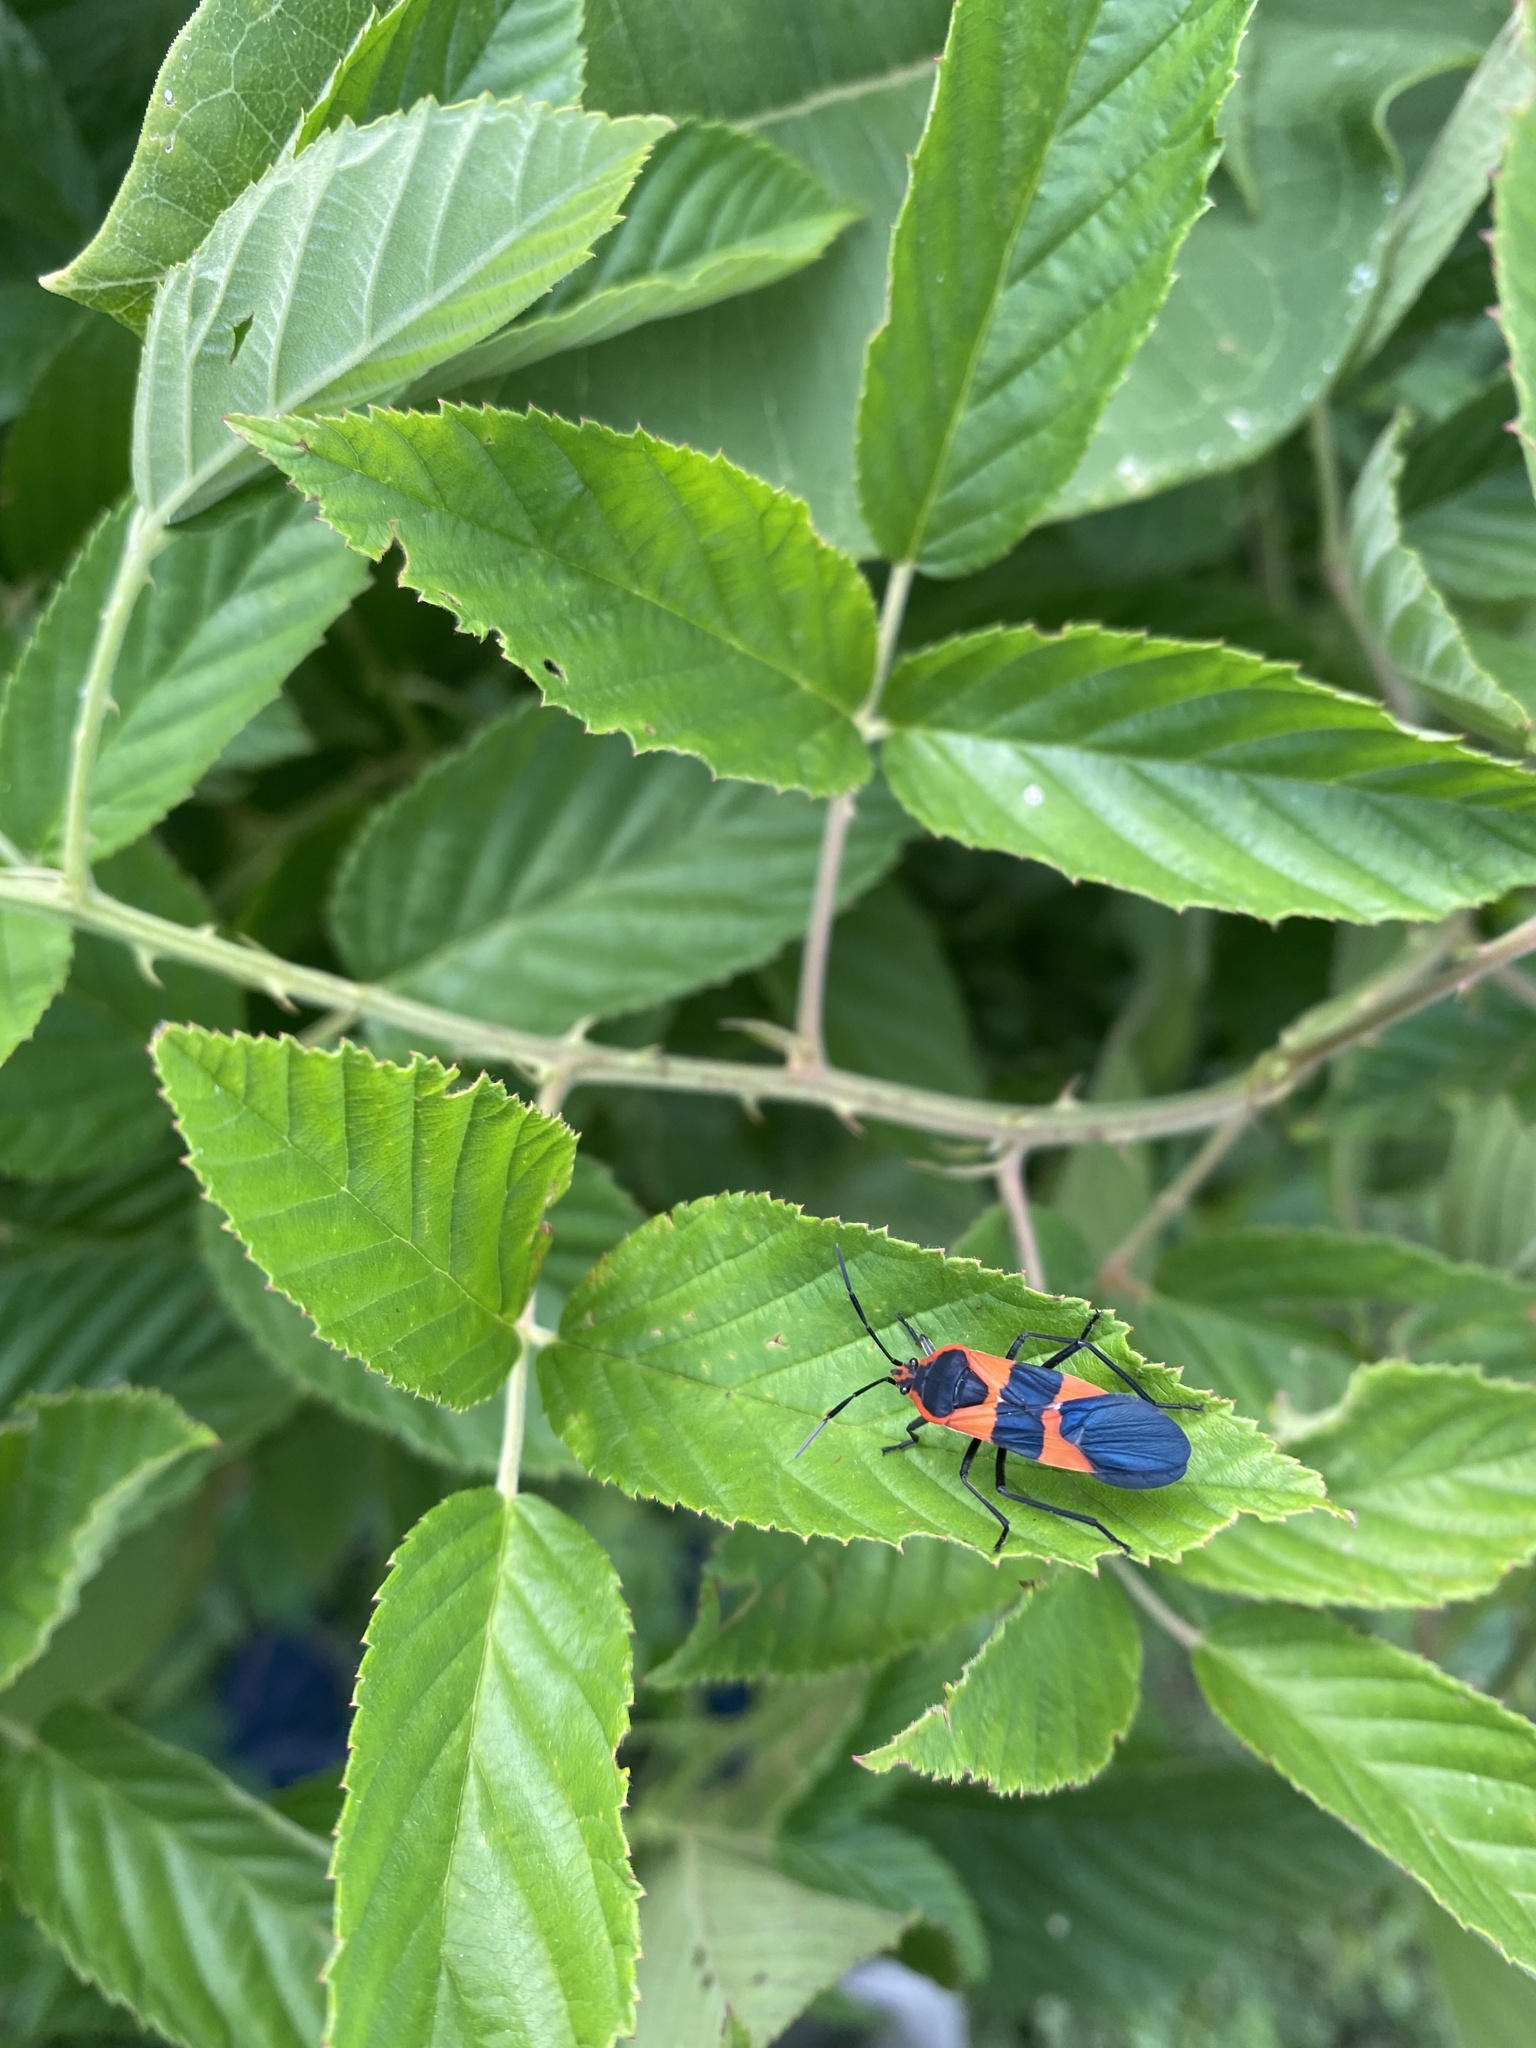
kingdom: Animalia
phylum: Arthropoda
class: Insecta
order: Hemiptera
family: Lygaeidae
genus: Oncopeltus
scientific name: Oncopeltus fasciatus
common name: Large milkweed bug
